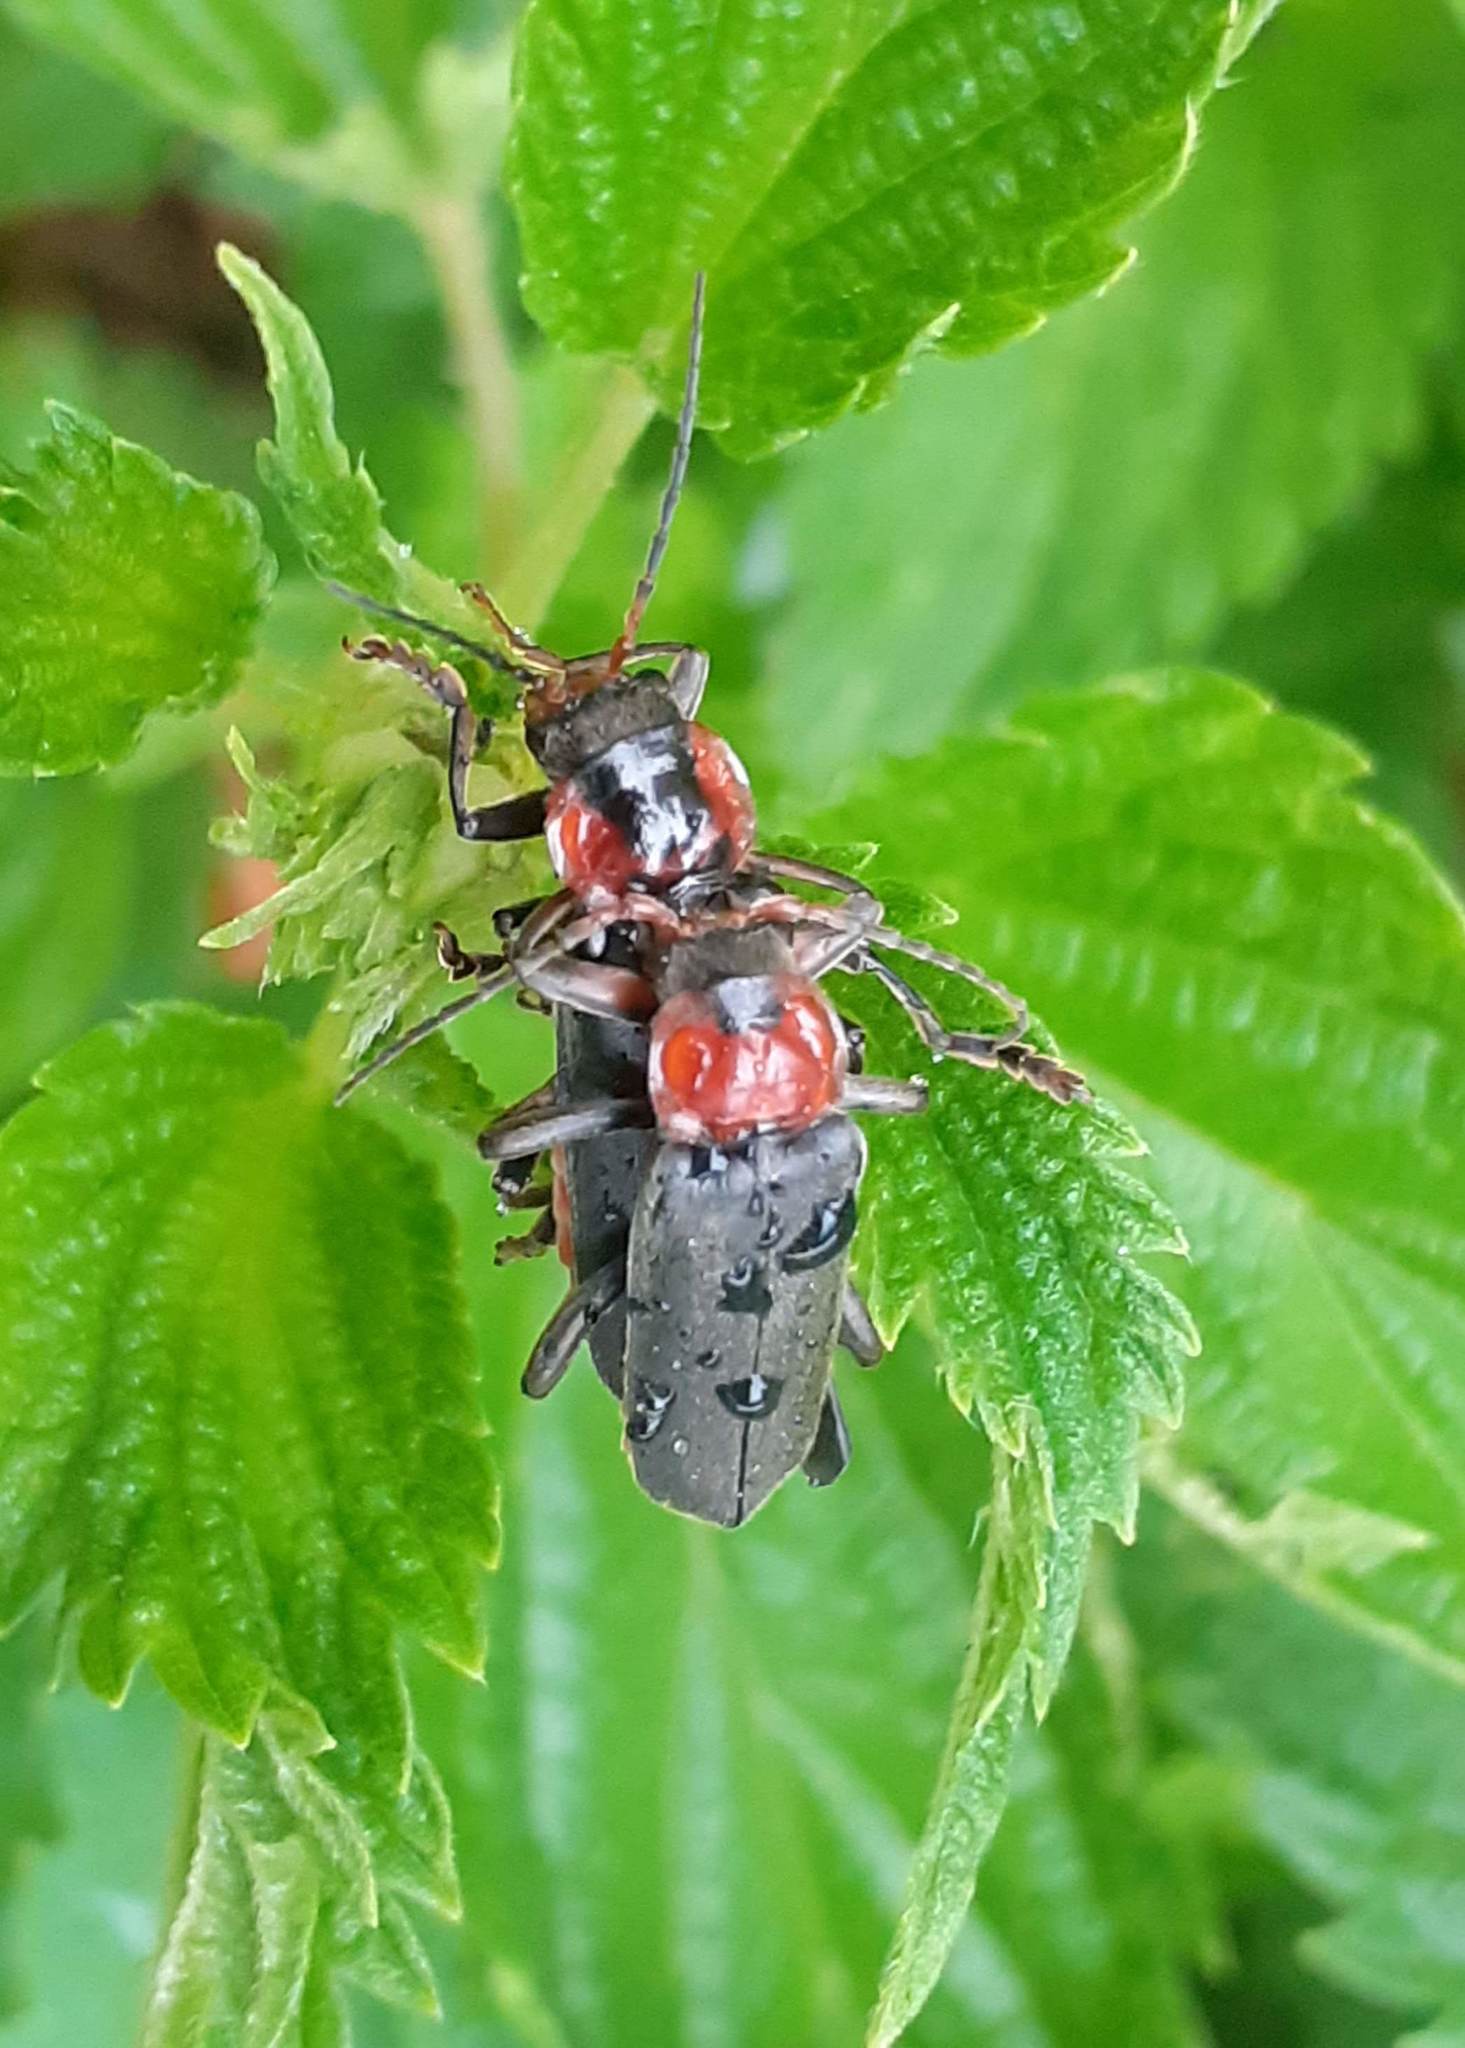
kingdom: Animalia
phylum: Arthropoda
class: Insecta
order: Coleoptera
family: Cantharidae
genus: Cantharis
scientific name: Cantharis fusca
